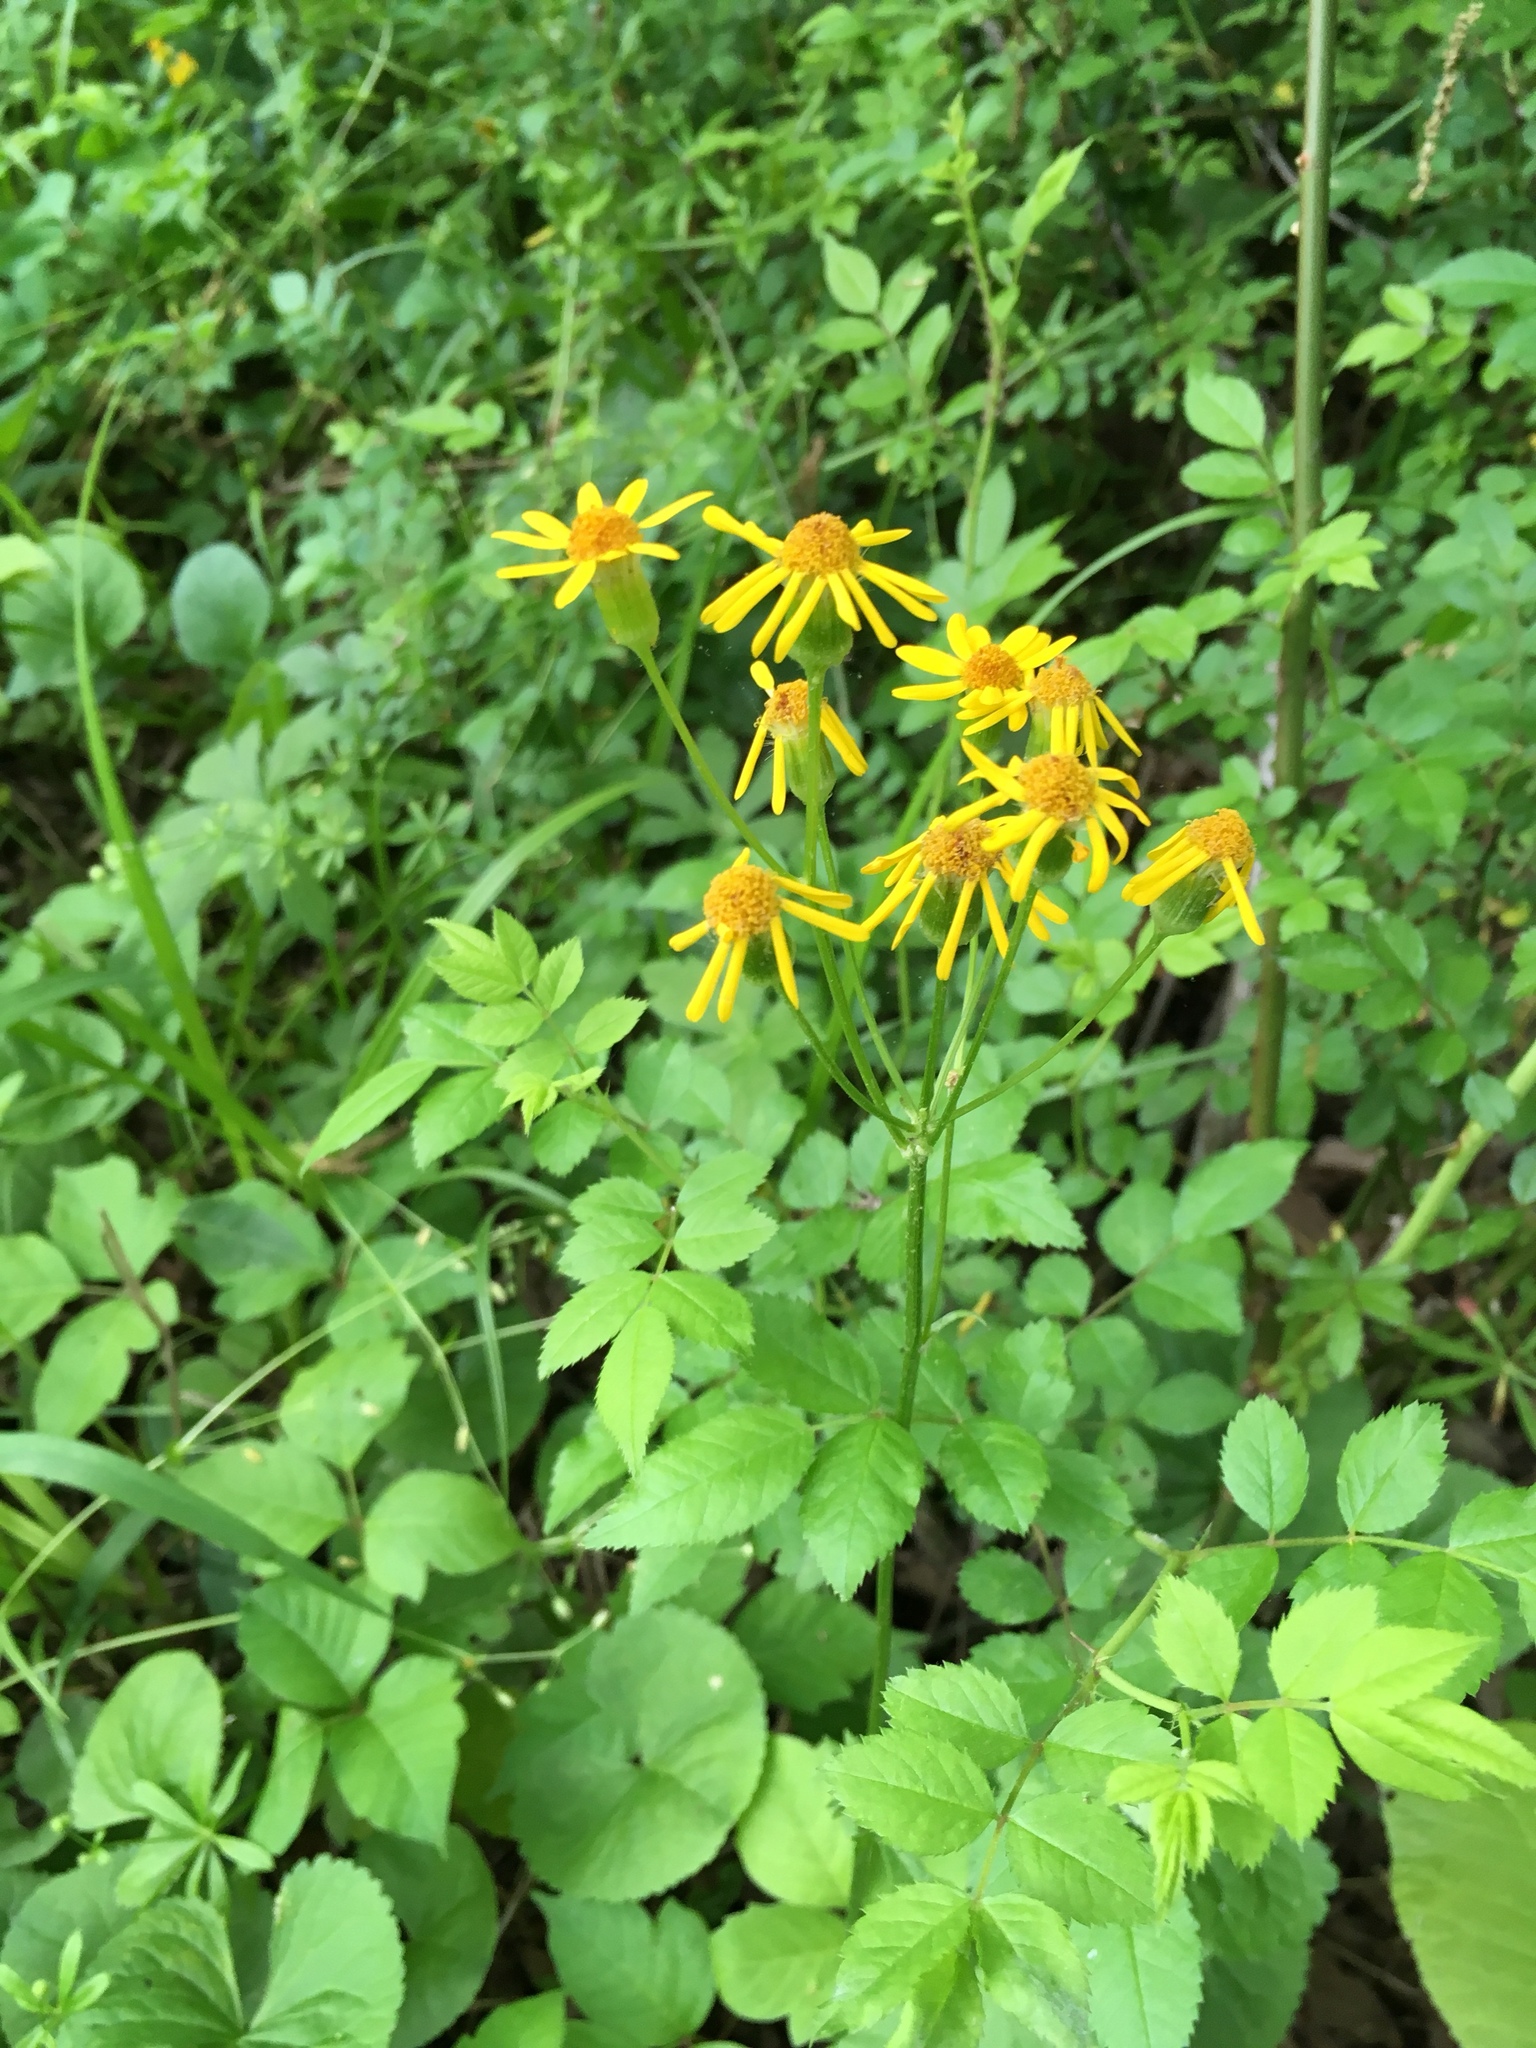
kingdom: Plantae
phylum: Tracheophyta
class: Magnoliopsida
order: Asterales
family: Asteraceae
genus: Packera
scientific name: Packera aurea
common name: Golden groundsel
